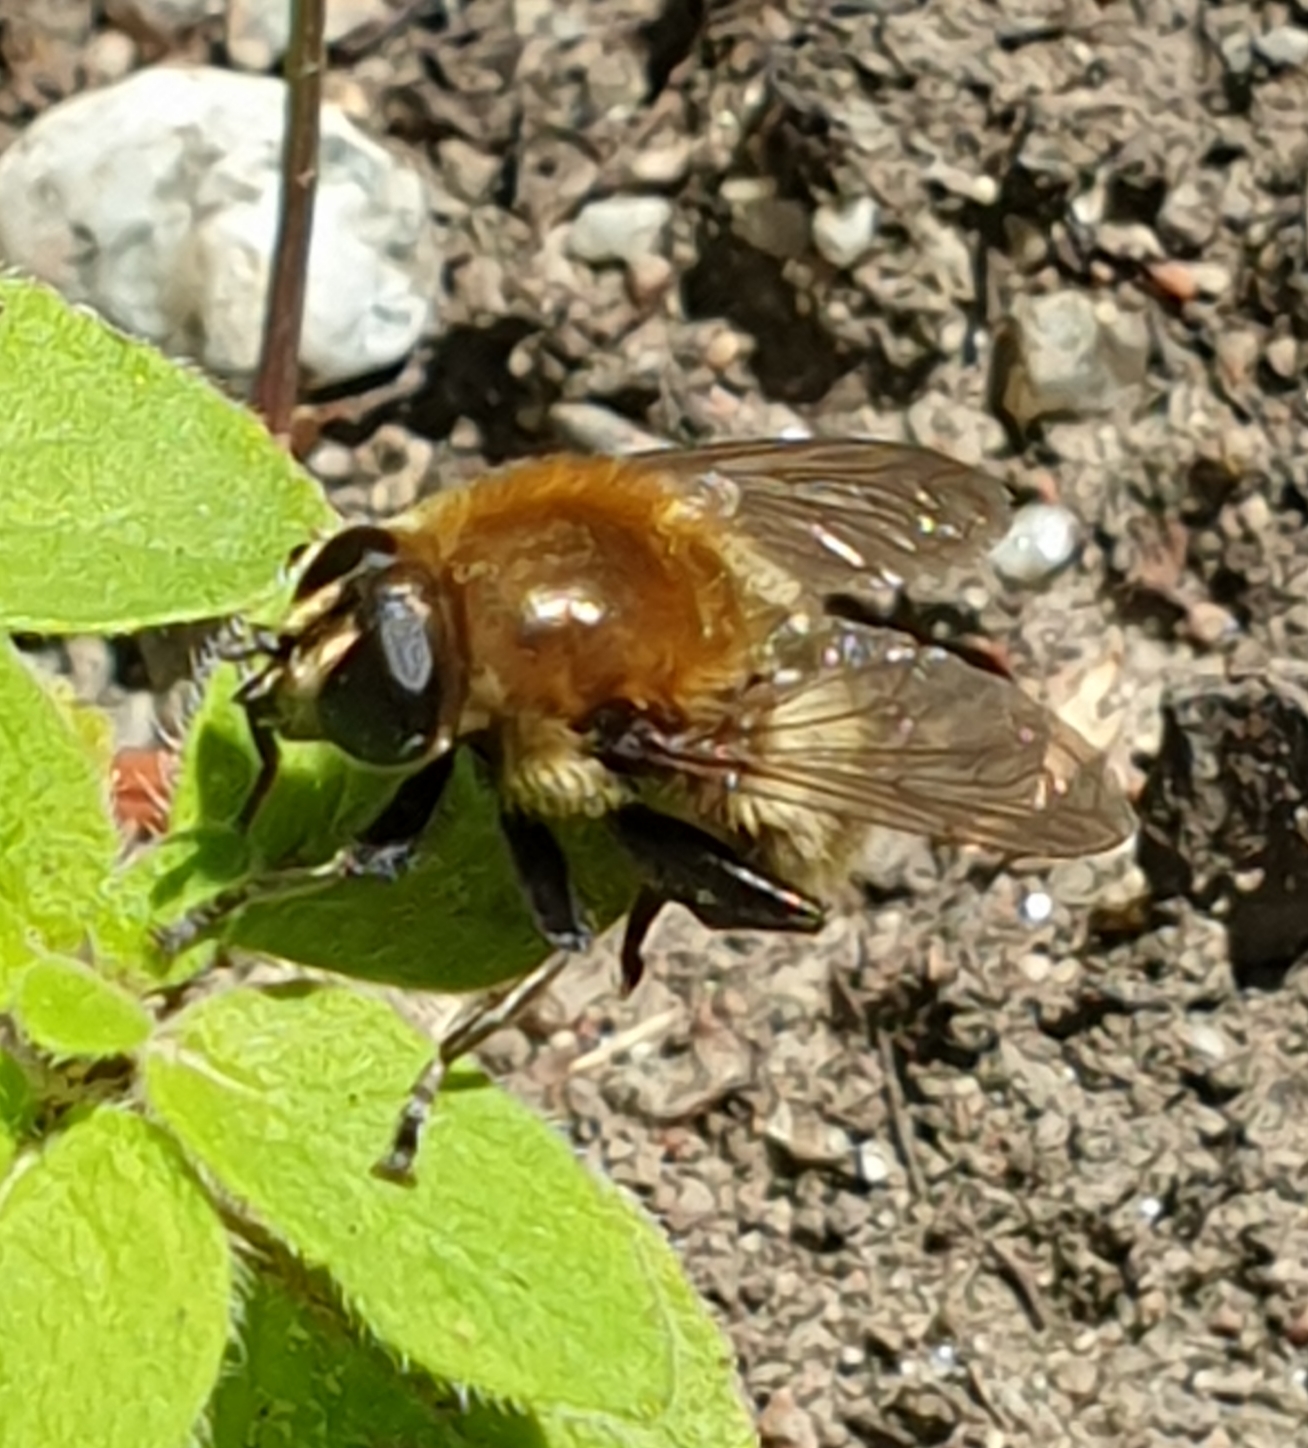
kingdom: Animalia
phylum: Arthropoda
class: Insecta
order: Diptera
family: Syrphidae
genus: Merodon
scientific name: Merodon equestris
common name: Greater bulb-fly
